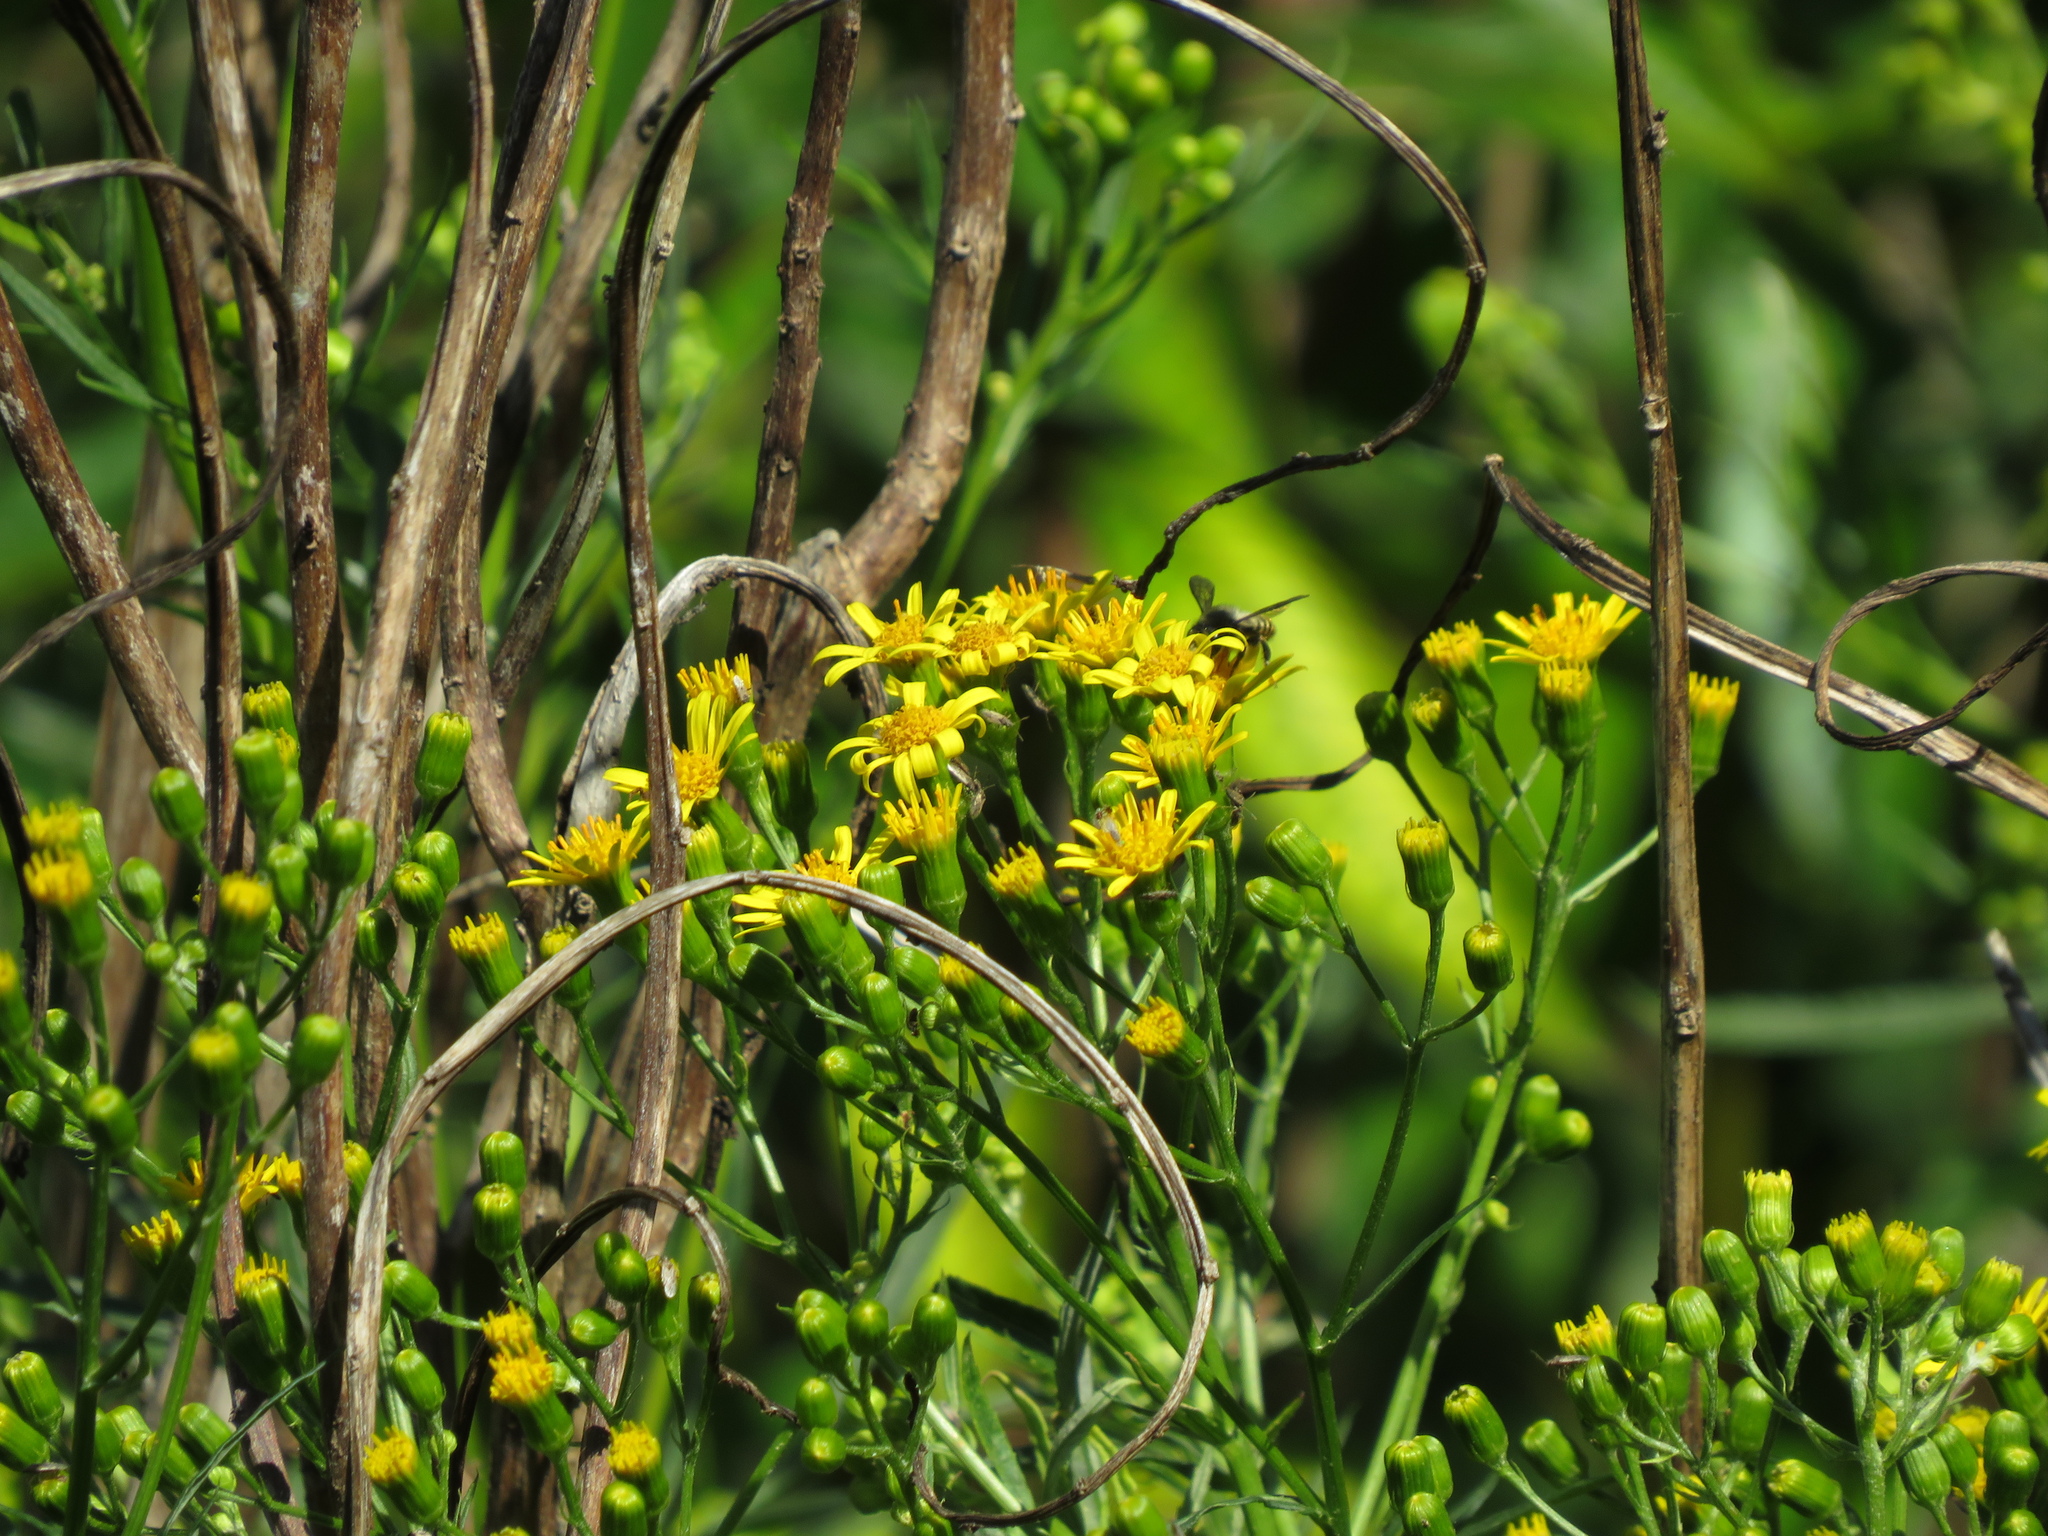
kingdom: Plantae
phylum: Tracheophyta
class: Magnoliopsida
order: Asterales
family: Asteraceae
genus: Senecio
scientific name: Senecio brasiliensis
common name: Hemp-leaf ragwort
